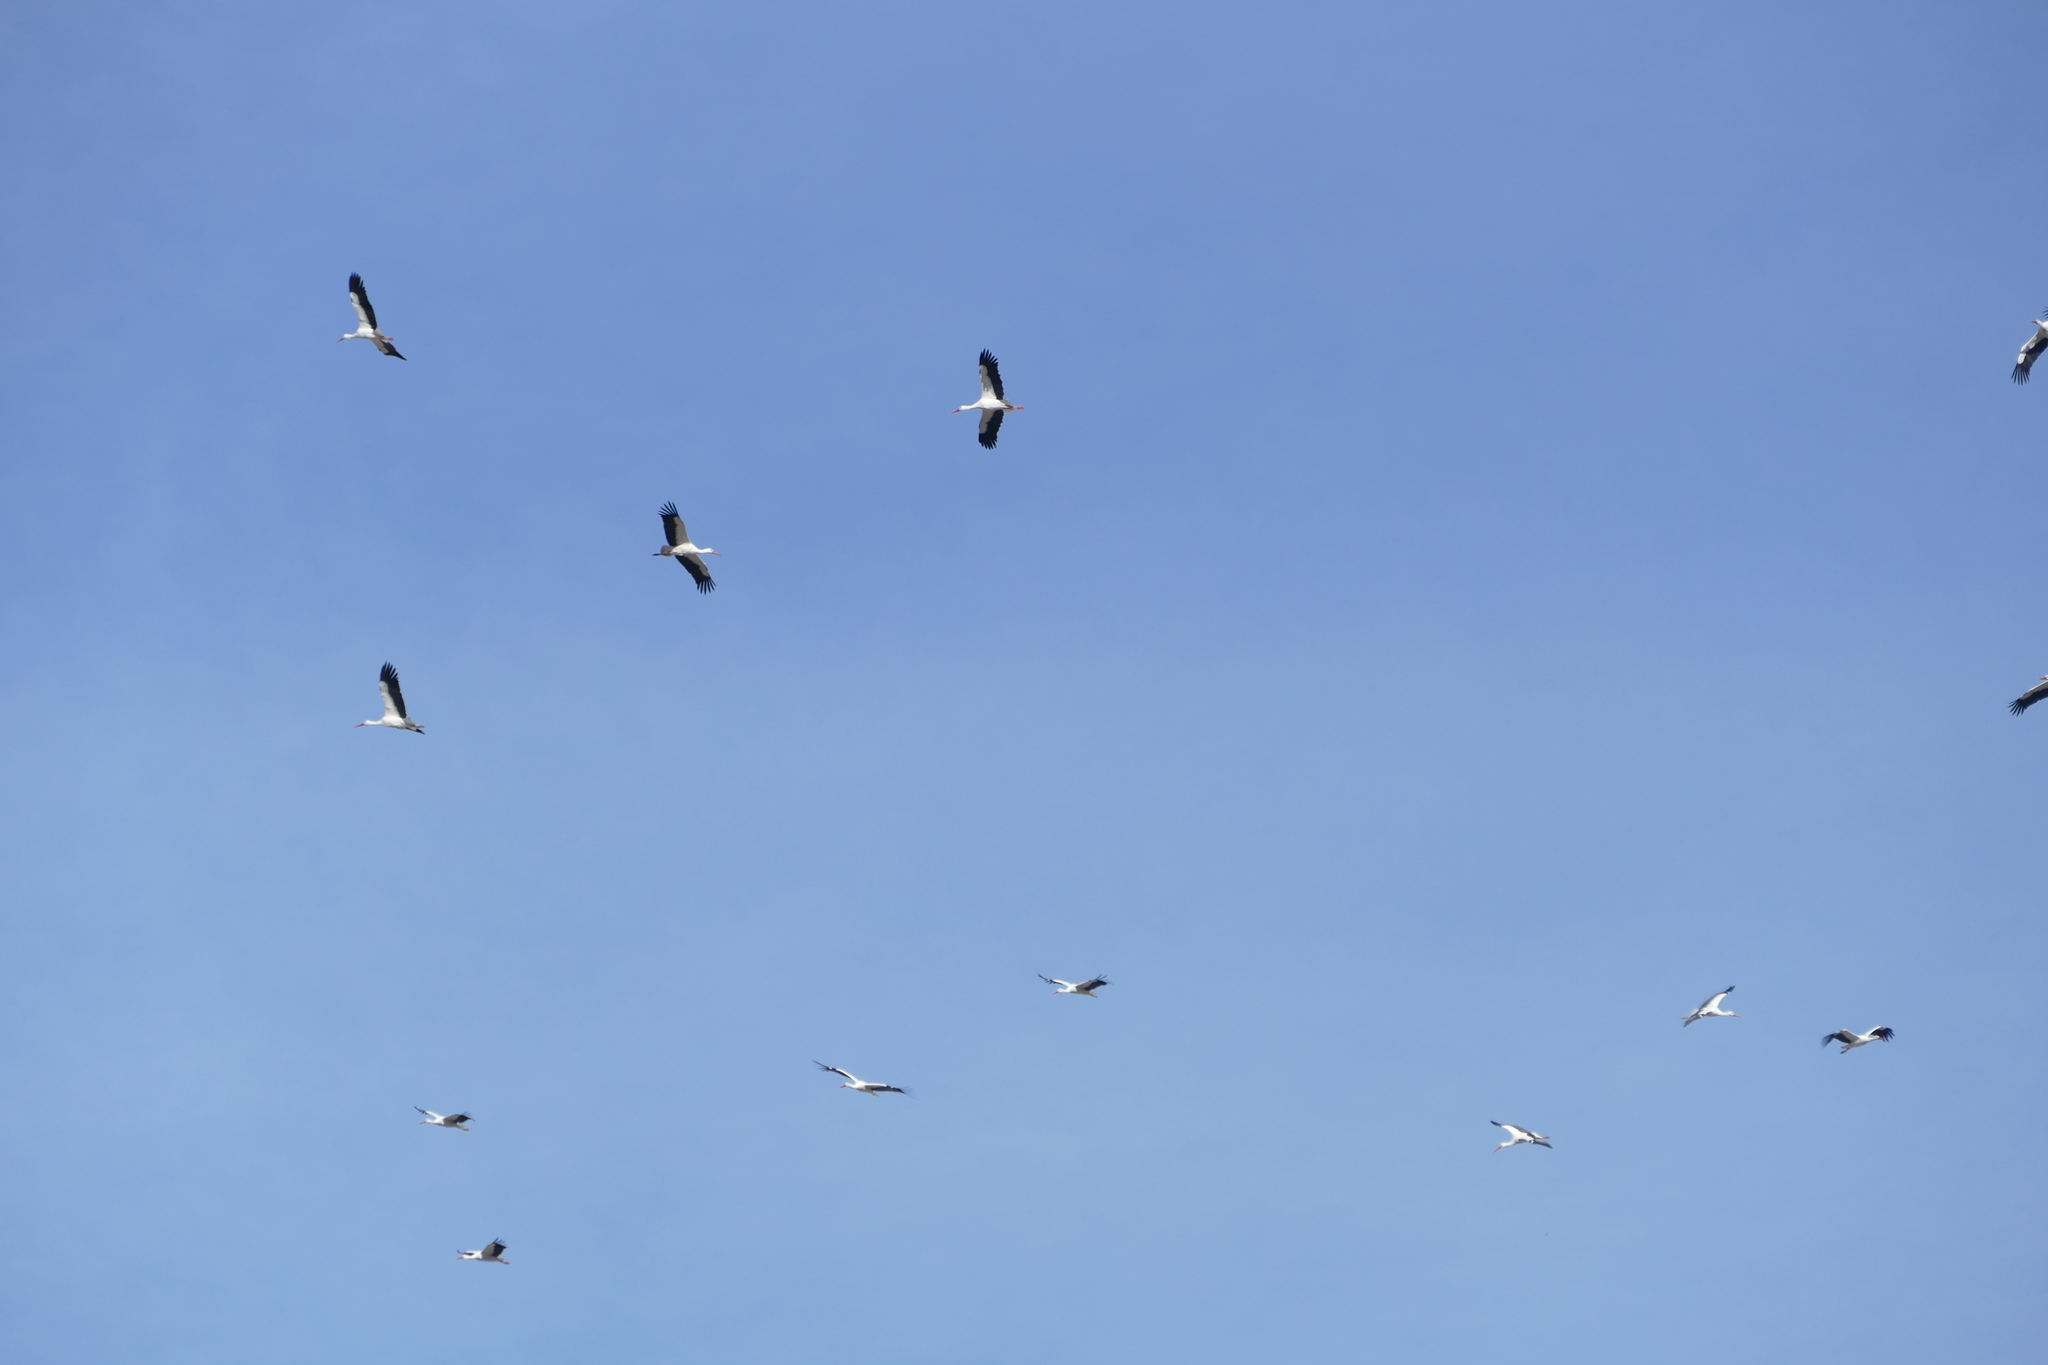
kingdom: Animalia
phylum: Chordata
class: Aves
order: Ciconiiformes
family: Ciconiidae
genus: Ciconia
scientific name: Ciconia ciconia
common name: White stork
